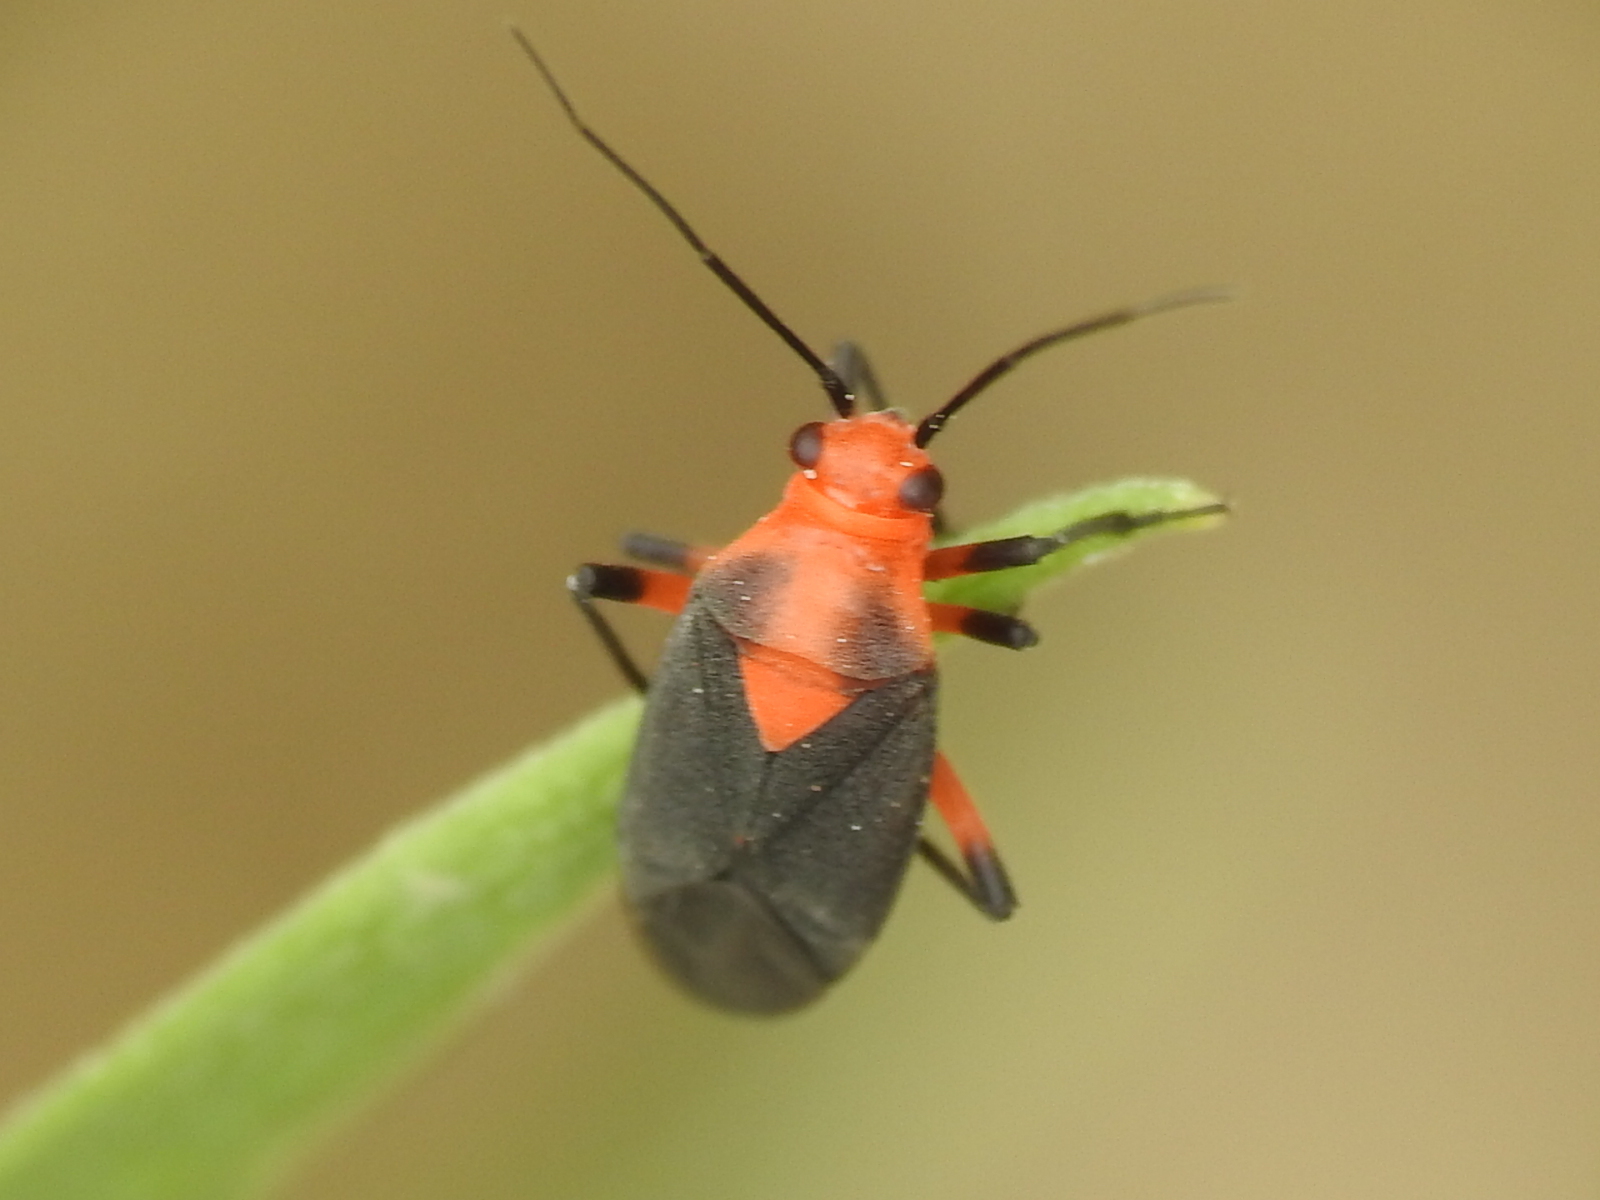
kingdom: Animalia
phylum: Arthropoda
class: Insecta
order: Hemiptera
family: Miridae
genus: Prepops
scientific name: Prepops rubrovittatus
